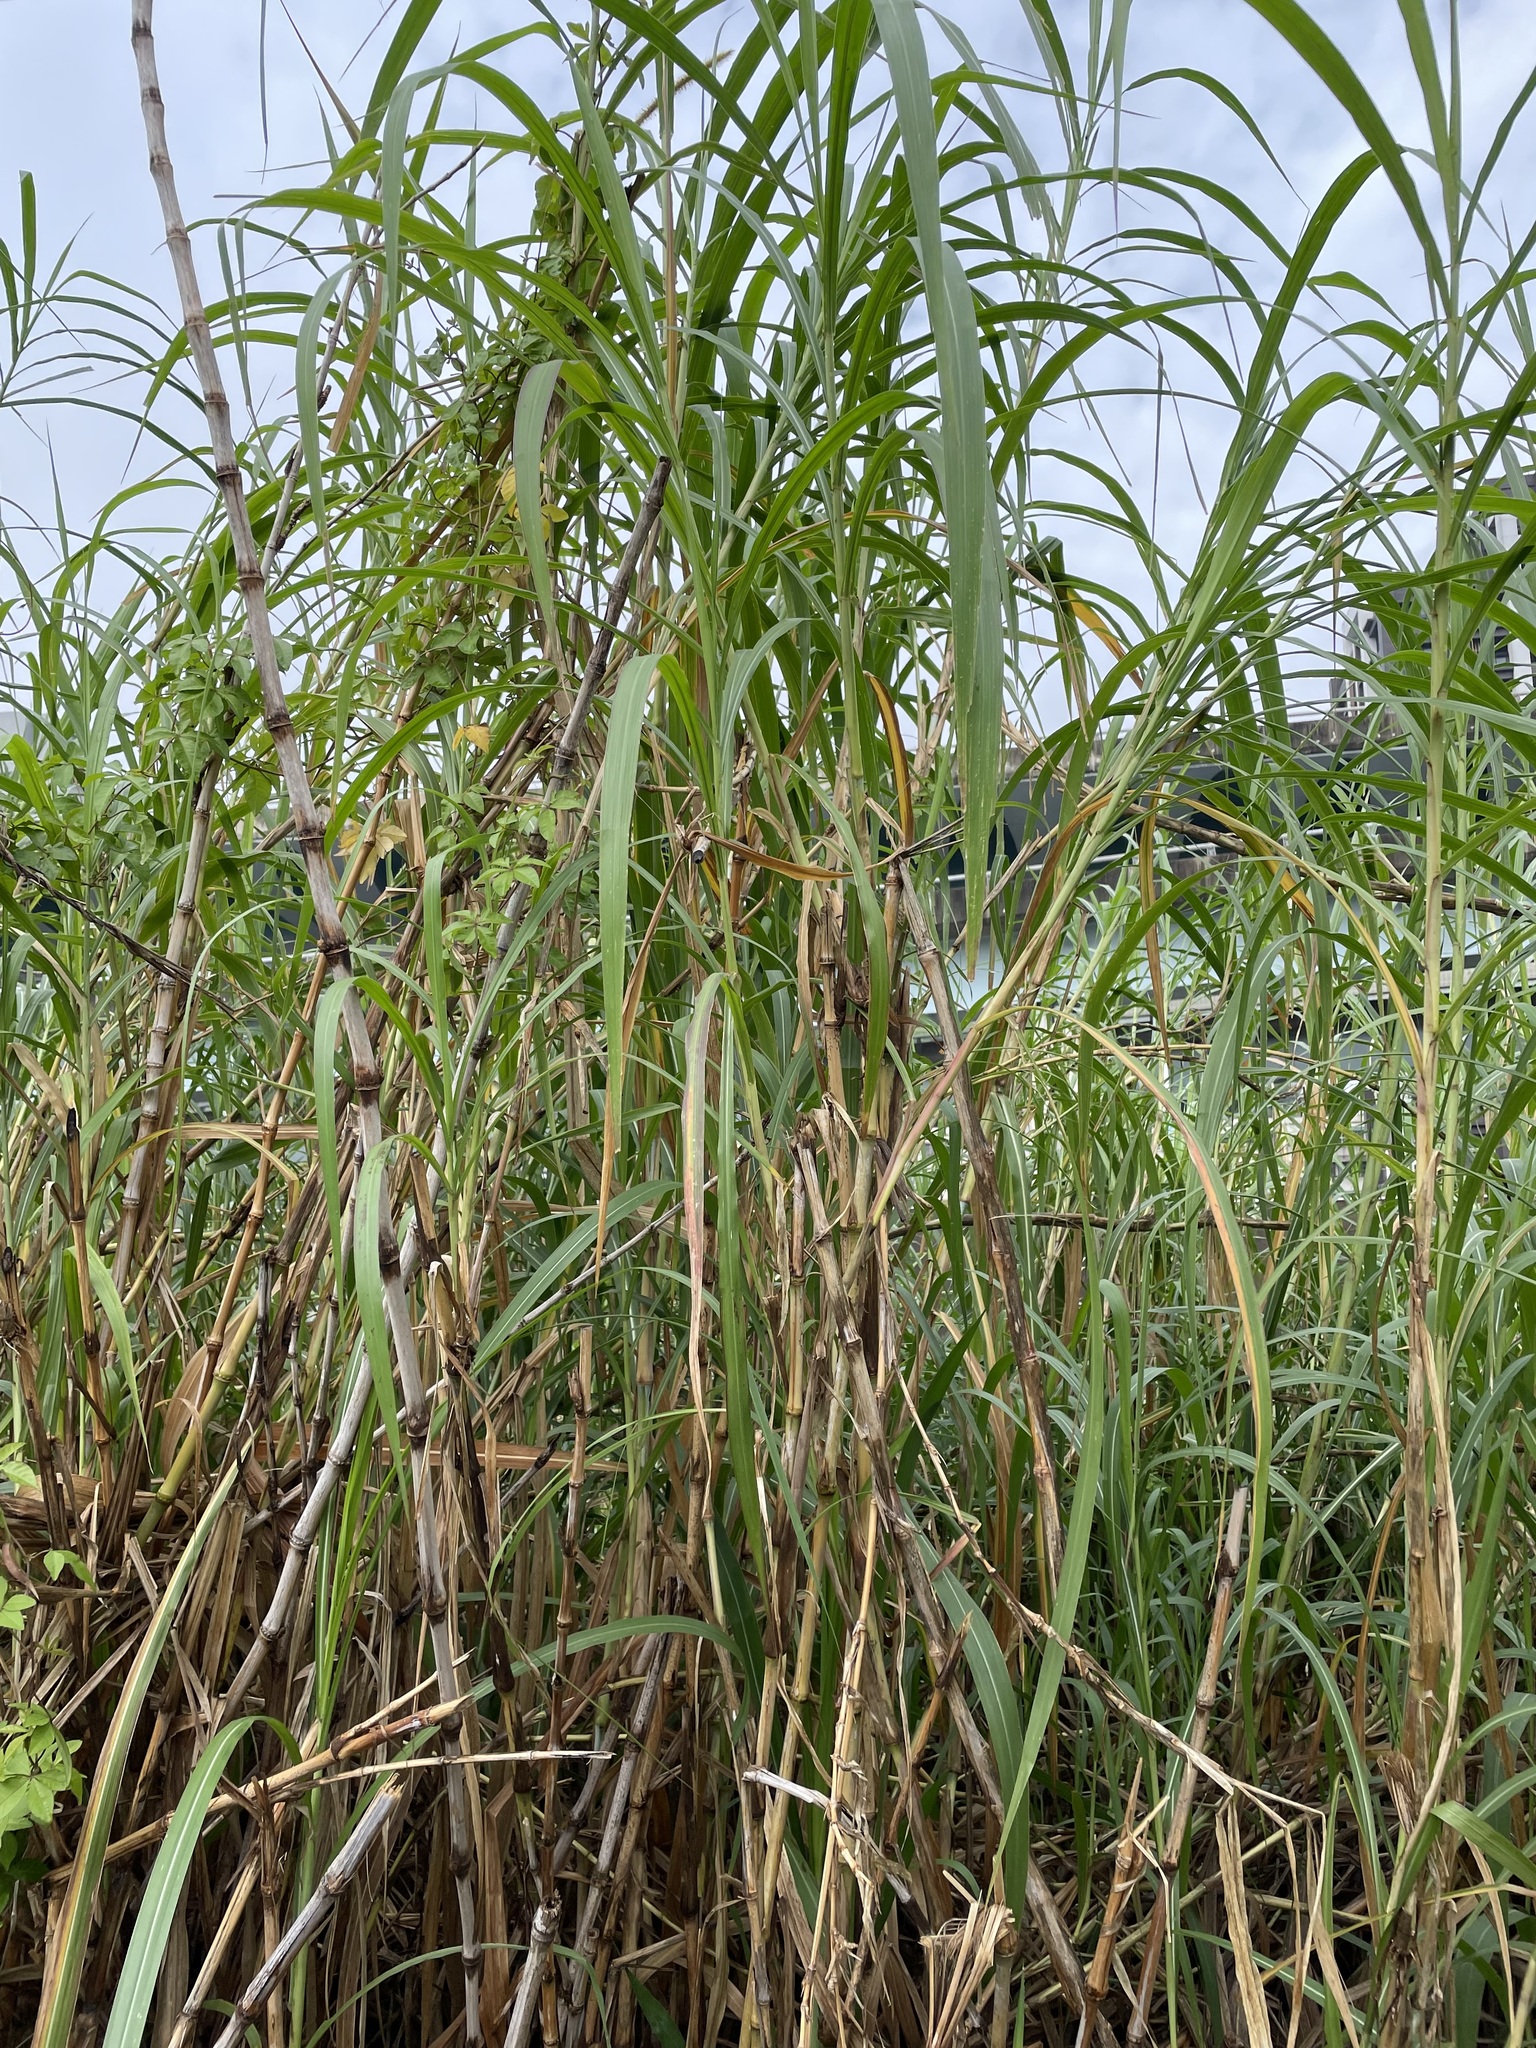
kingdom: Plantae
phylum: Tracheophyta
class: Liliopsida
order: Poales
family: Poaceae
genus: Cenchrus
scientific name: Cenchrus purpureus
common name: Elephant grass
